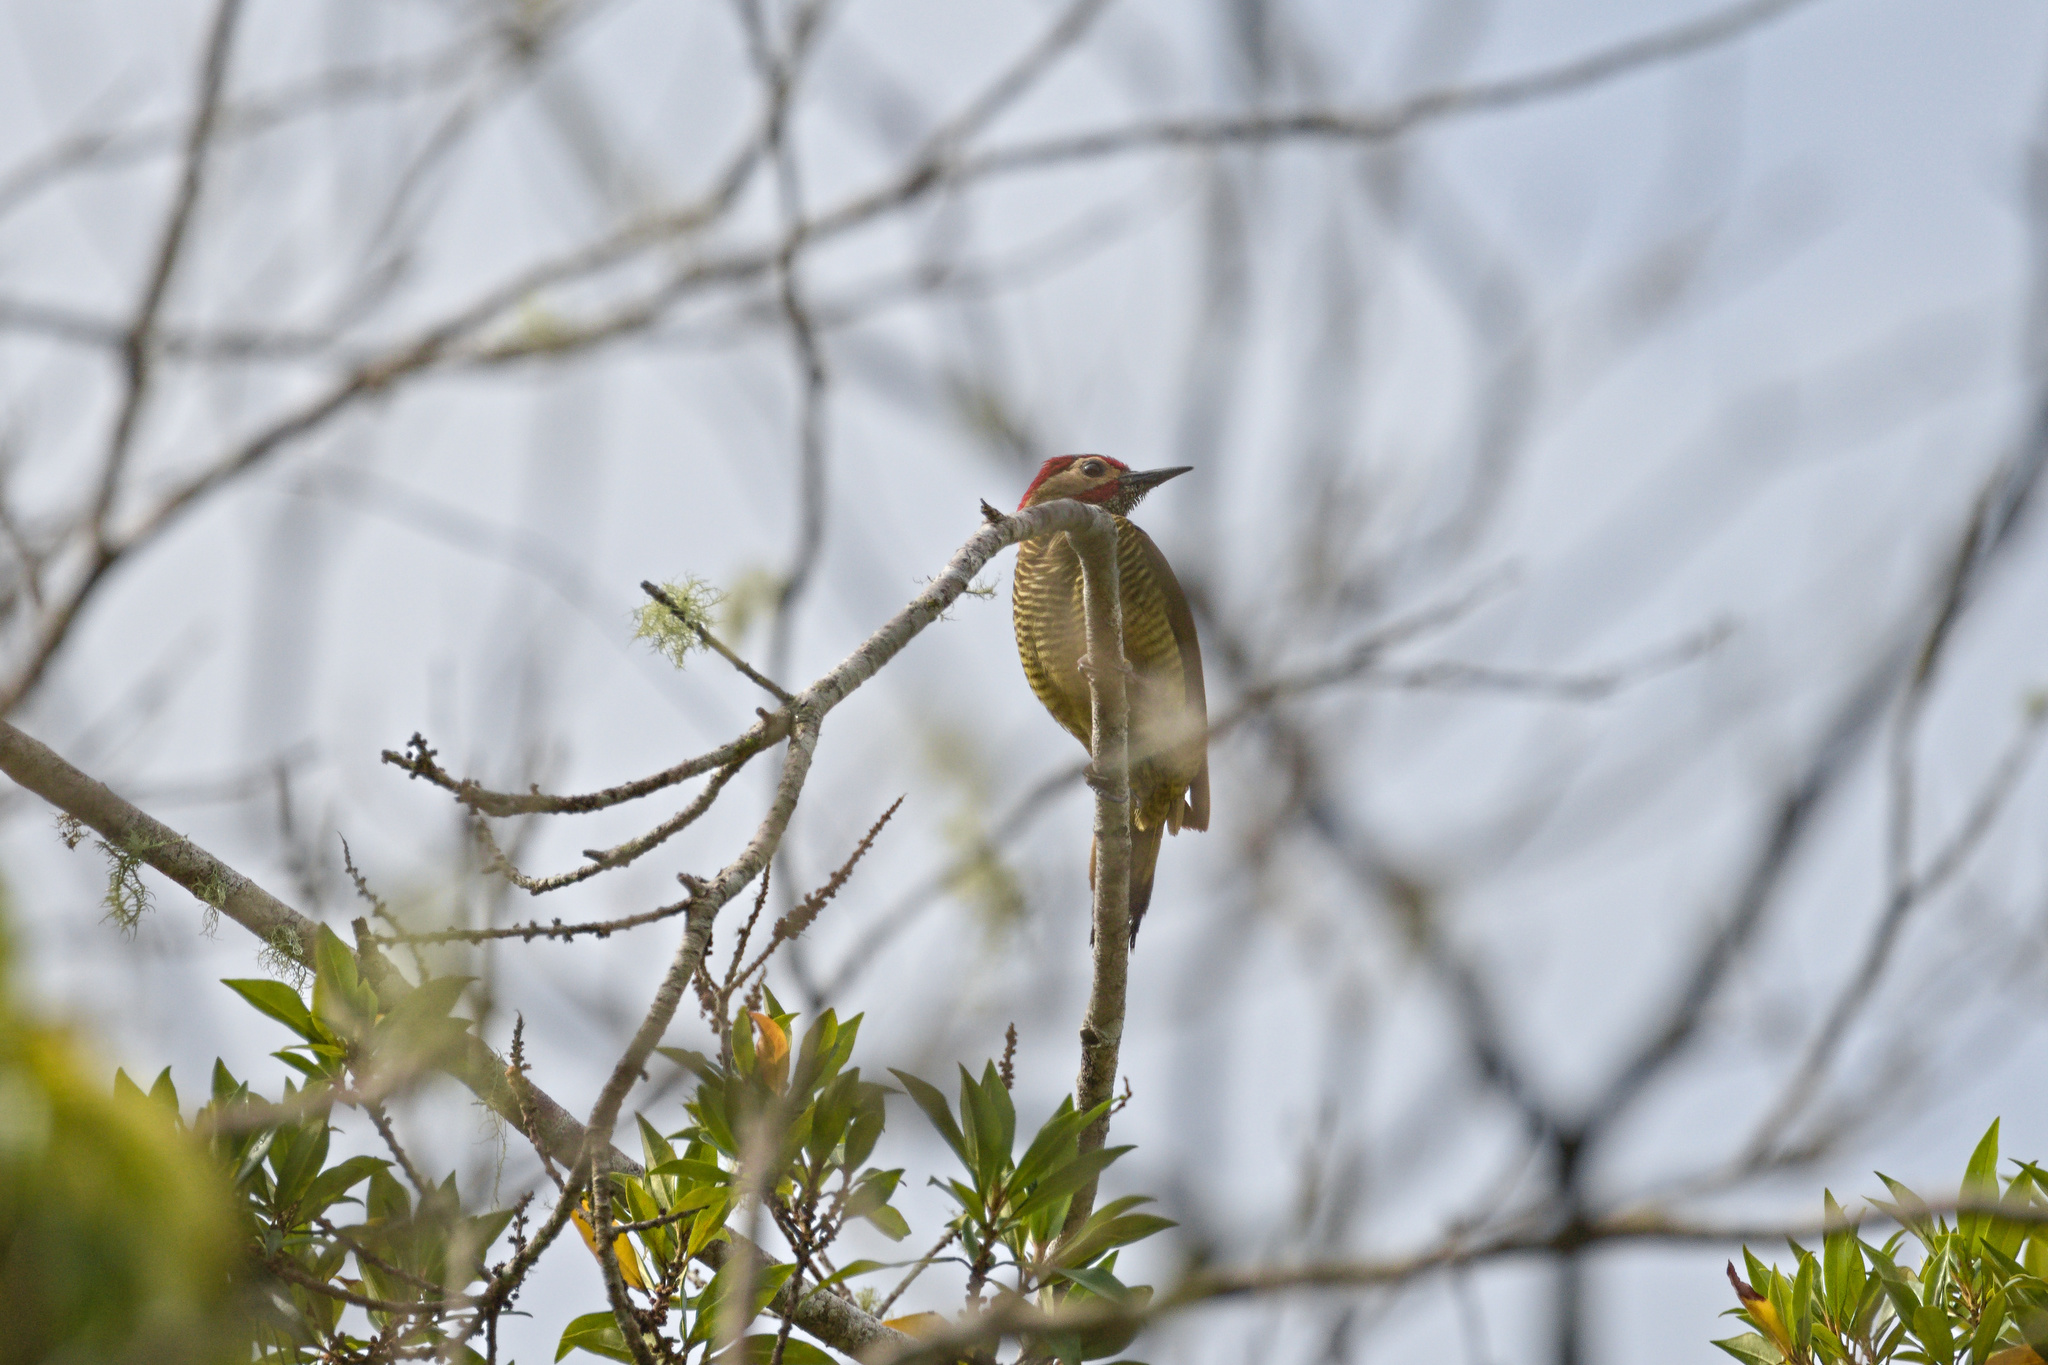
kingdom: Animalia
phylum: Chordata
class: Aves
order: Piciformes
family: Picidae
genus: Colaptes
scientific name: Colaptes rubiginosus
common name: Golden-olive woodpecker
